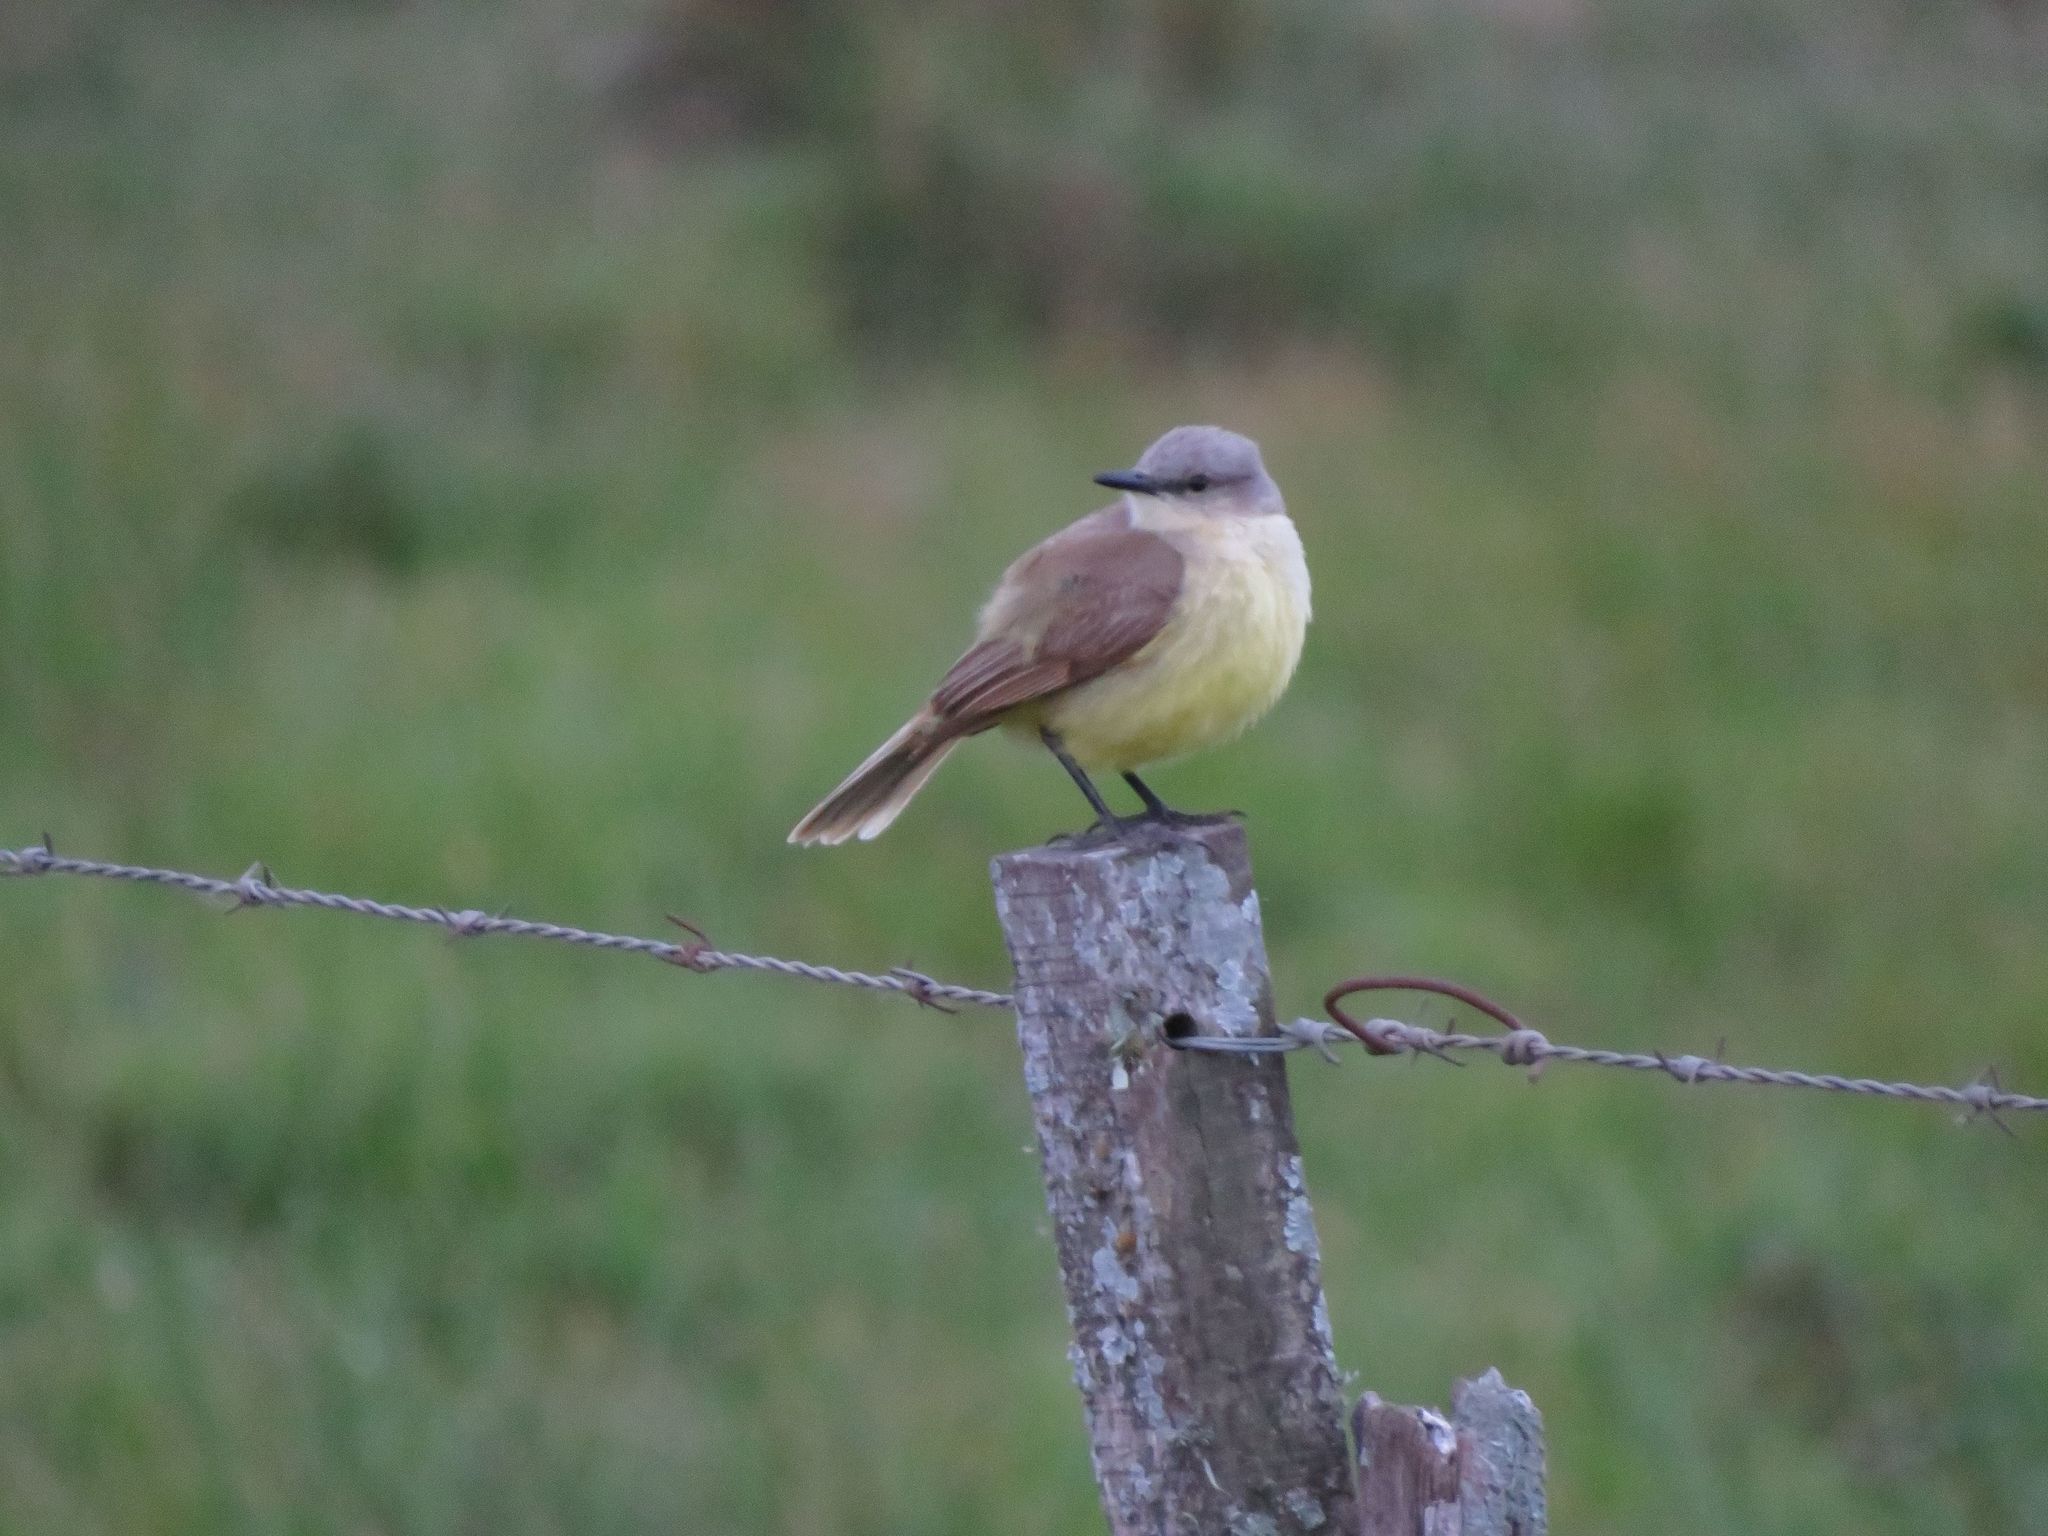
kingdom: Animalia
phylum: Chordata
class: Aves
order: Passeriformes
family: Tyrannidae
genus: Machetornis
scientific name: Machetornis rixosa
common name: Cattle tyrant
